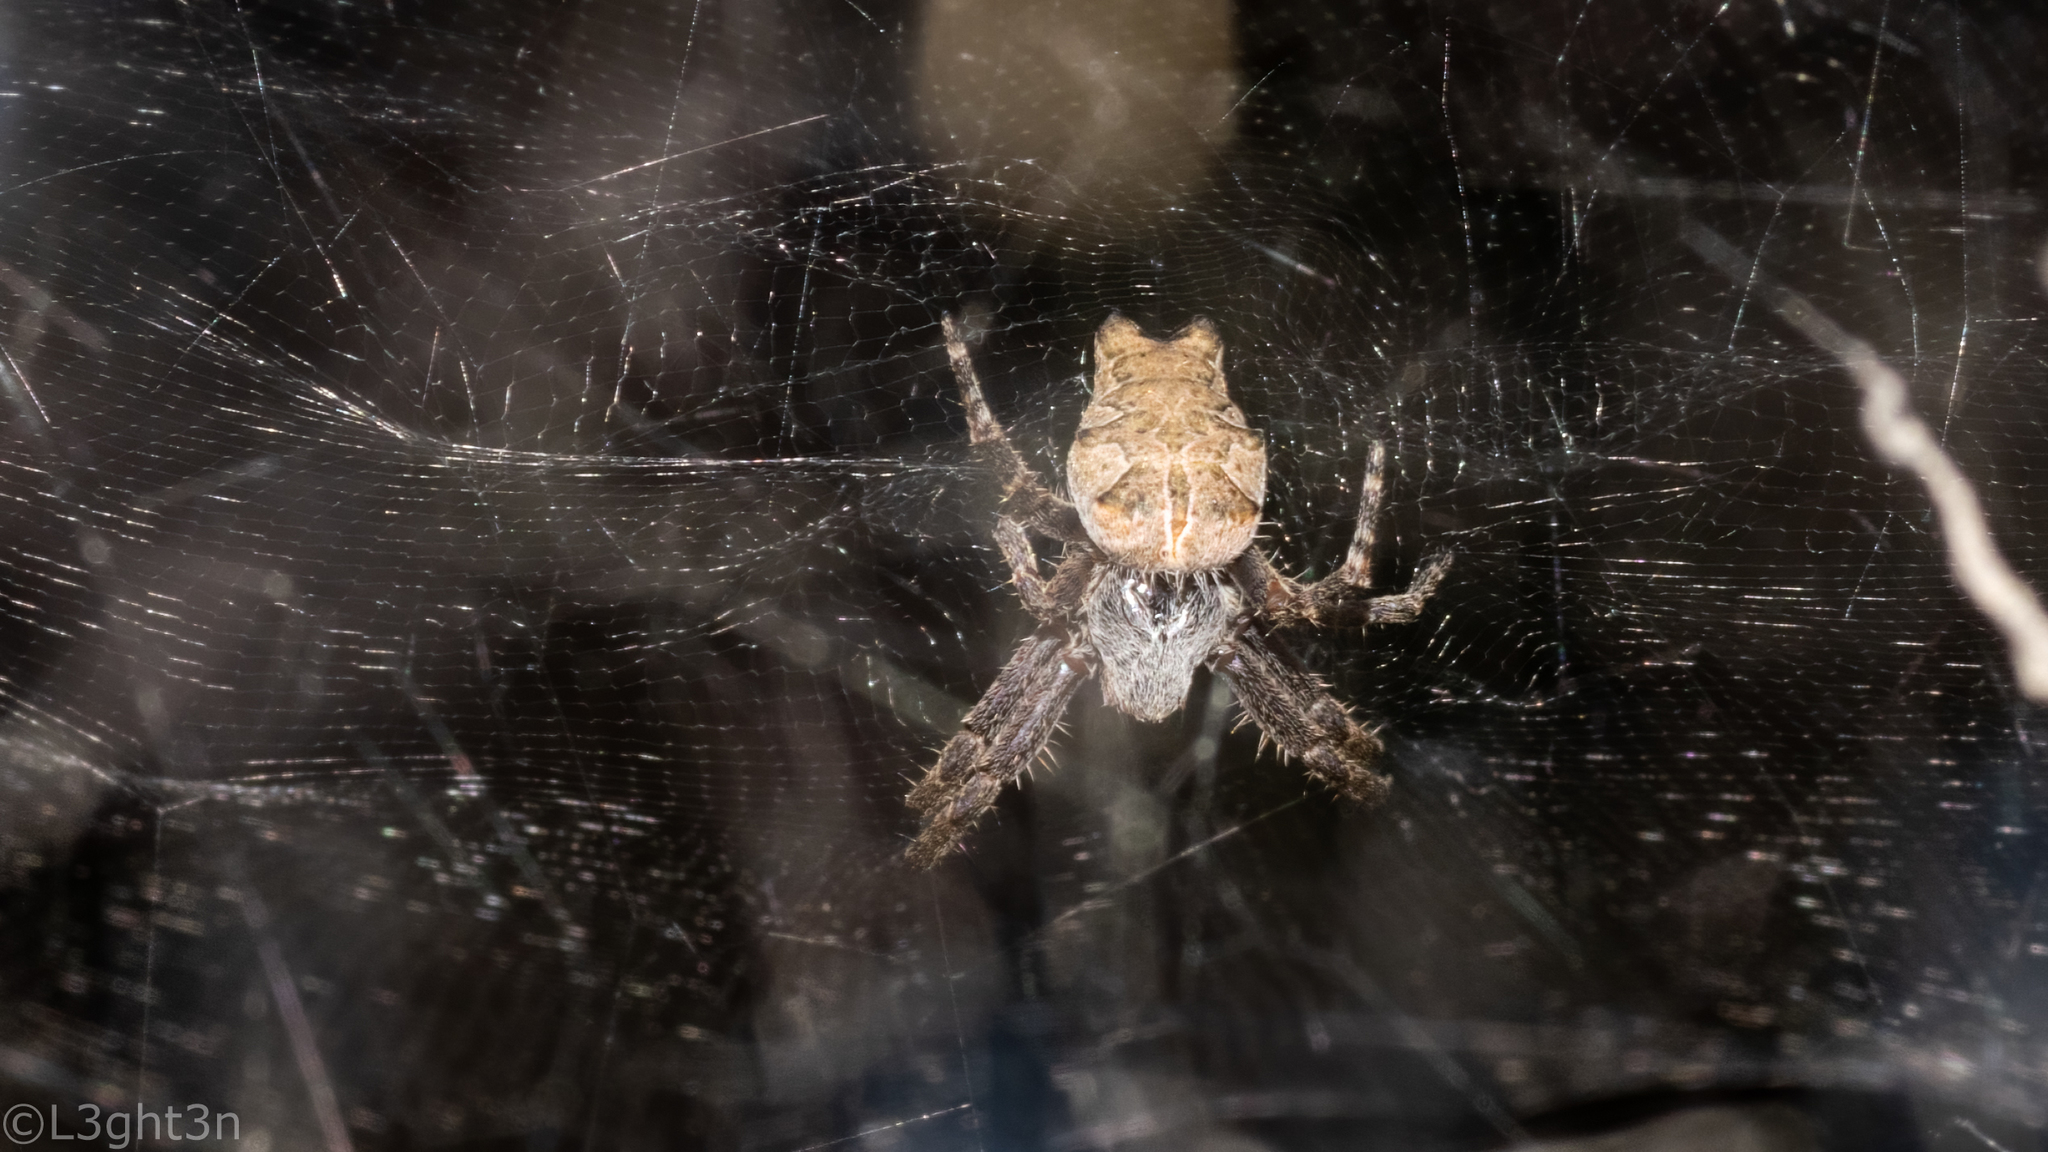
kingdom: Animalia
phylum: Arthropoda
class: Arachnida
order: Araneae
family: Araneidae
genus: Cyrtophora
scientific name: Cyrtophora citricola
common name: Orb weavers
